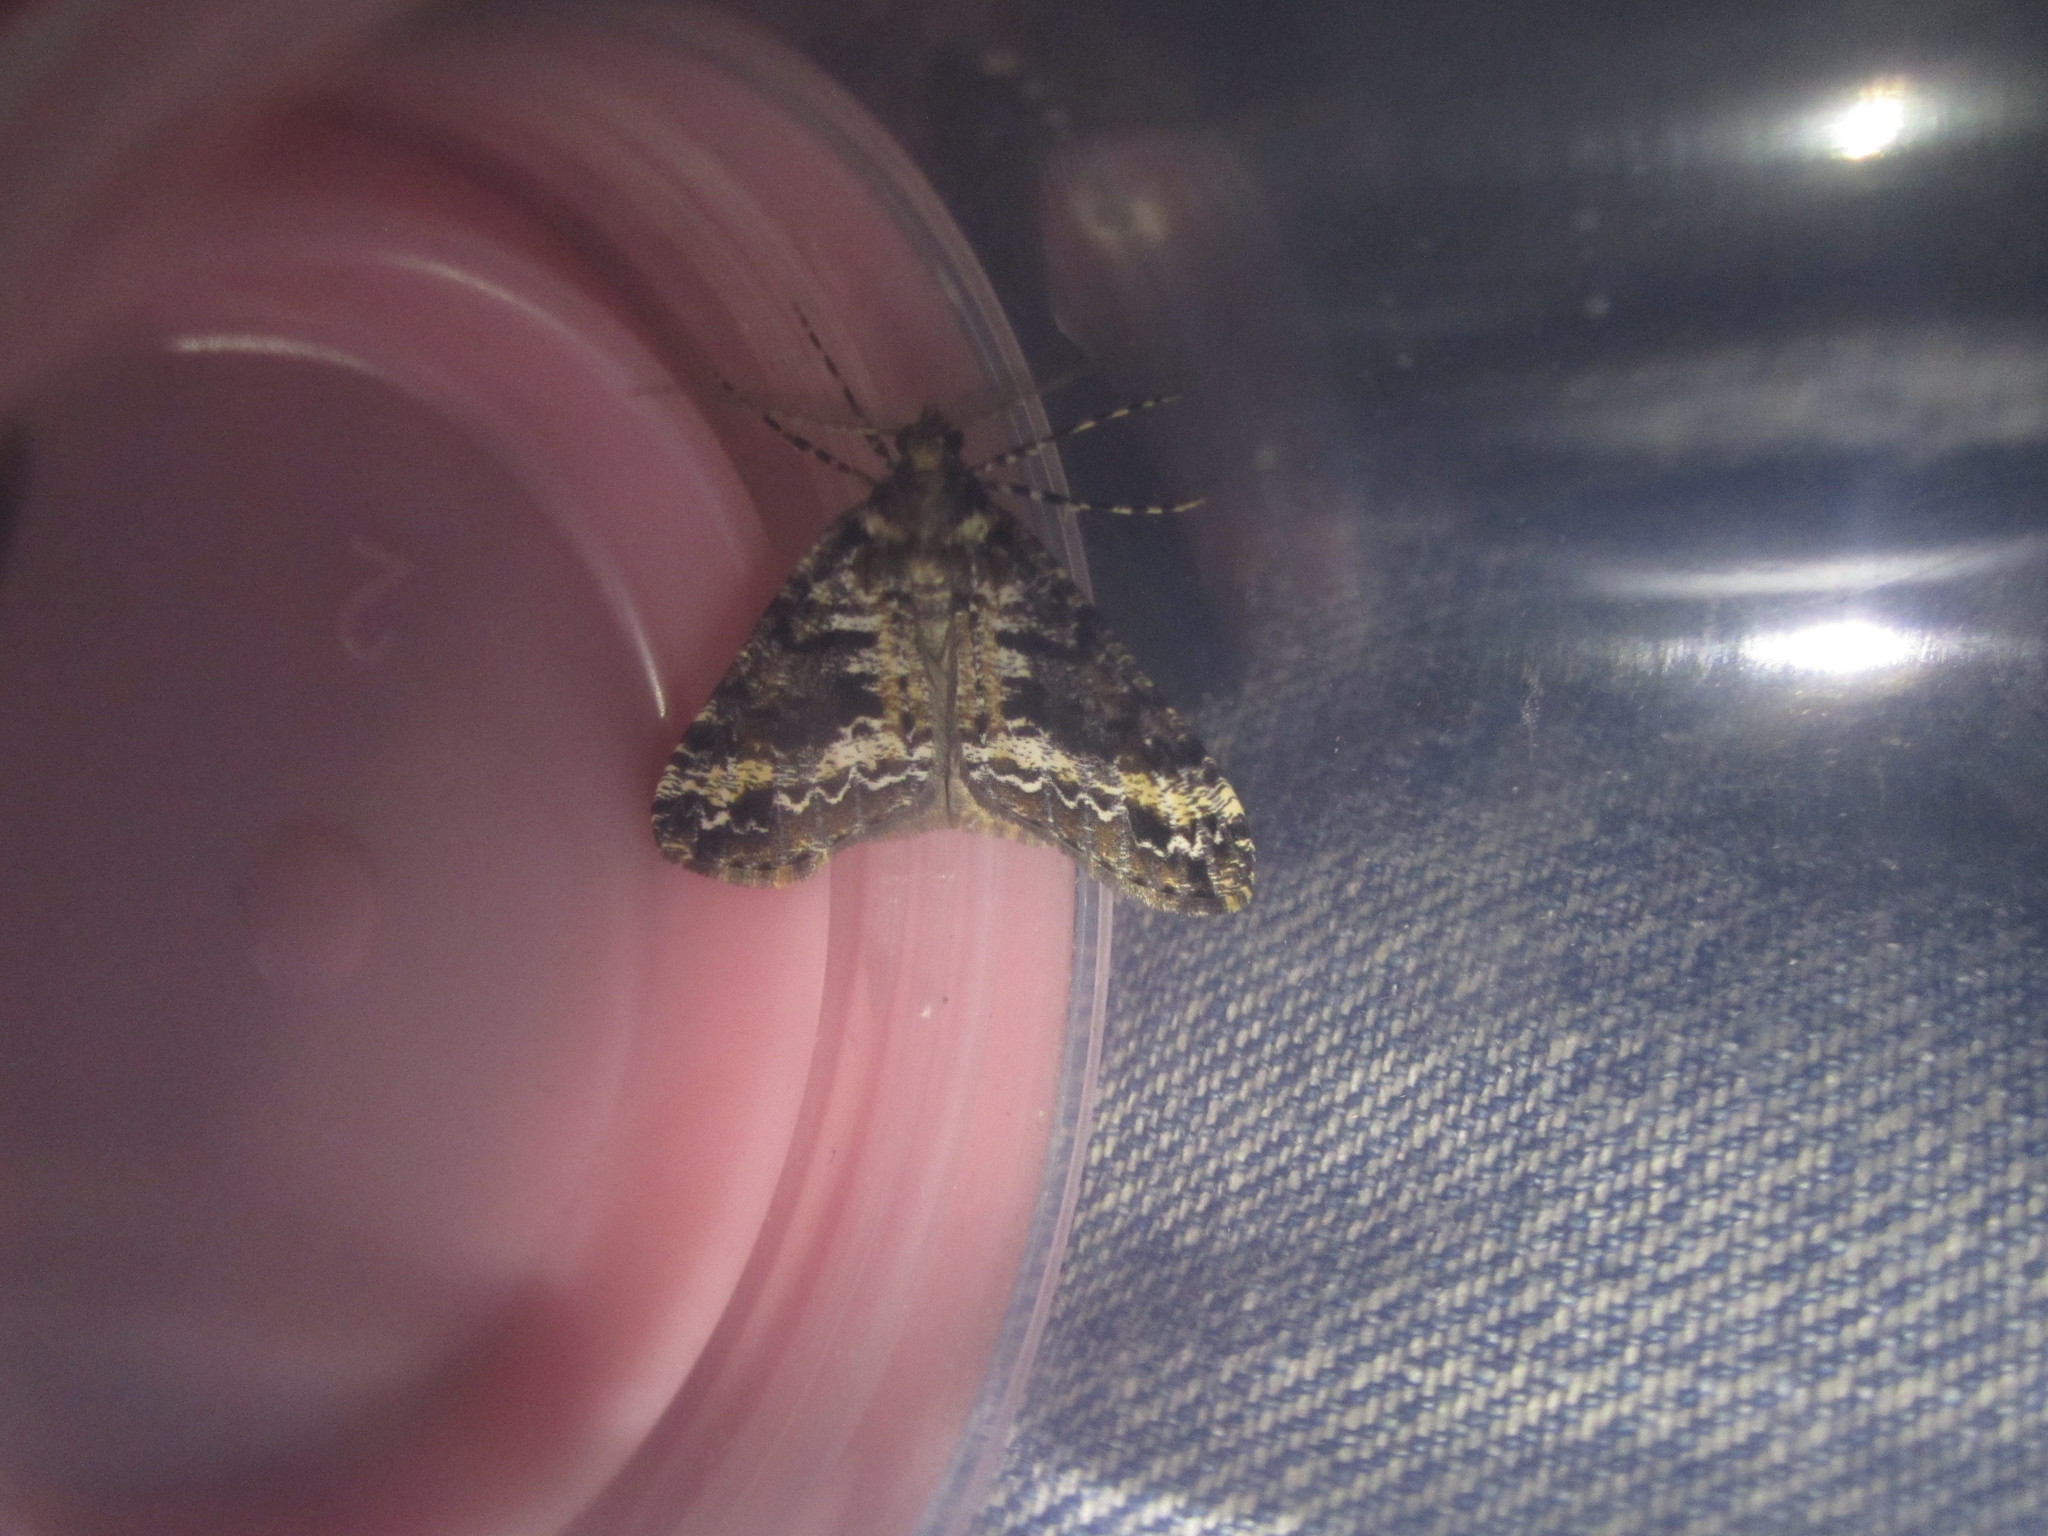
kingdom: Animalia
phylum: Arthropoda
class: Insecta
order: Lepidoptera
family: Geometridae
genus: Pseudocoremia
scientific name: Pseudocoremia leucelaea
